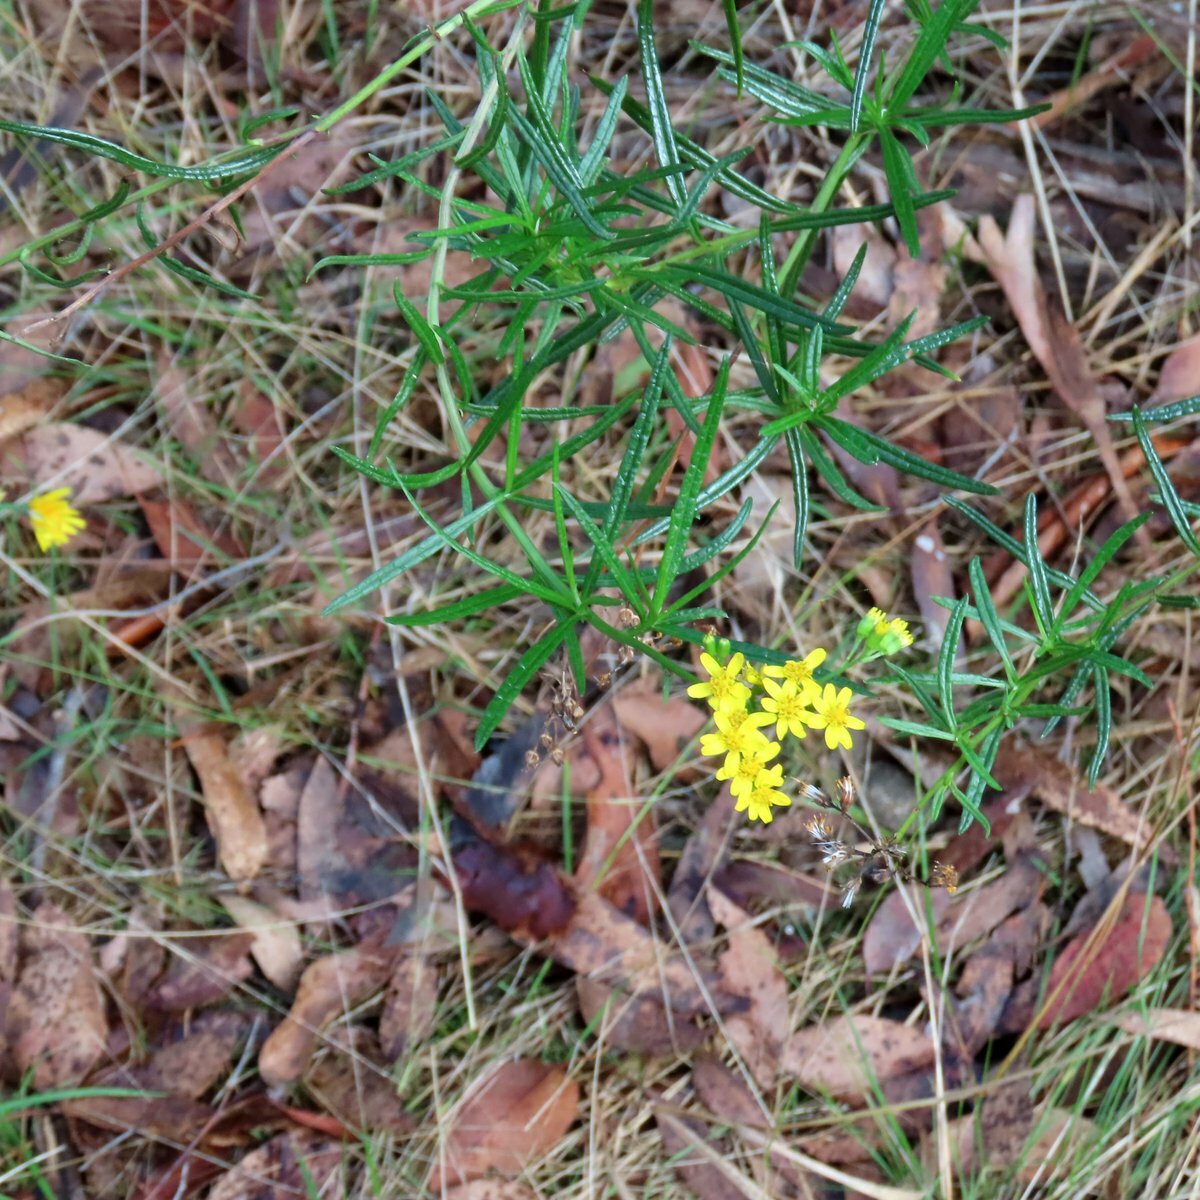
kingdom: Plantae
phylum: Tracheophyta
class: Magnoliopsida
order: Asterales
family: Asteraceae
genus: Senecio
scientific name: Senecio linearifolius
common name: Fireweed groundsel
